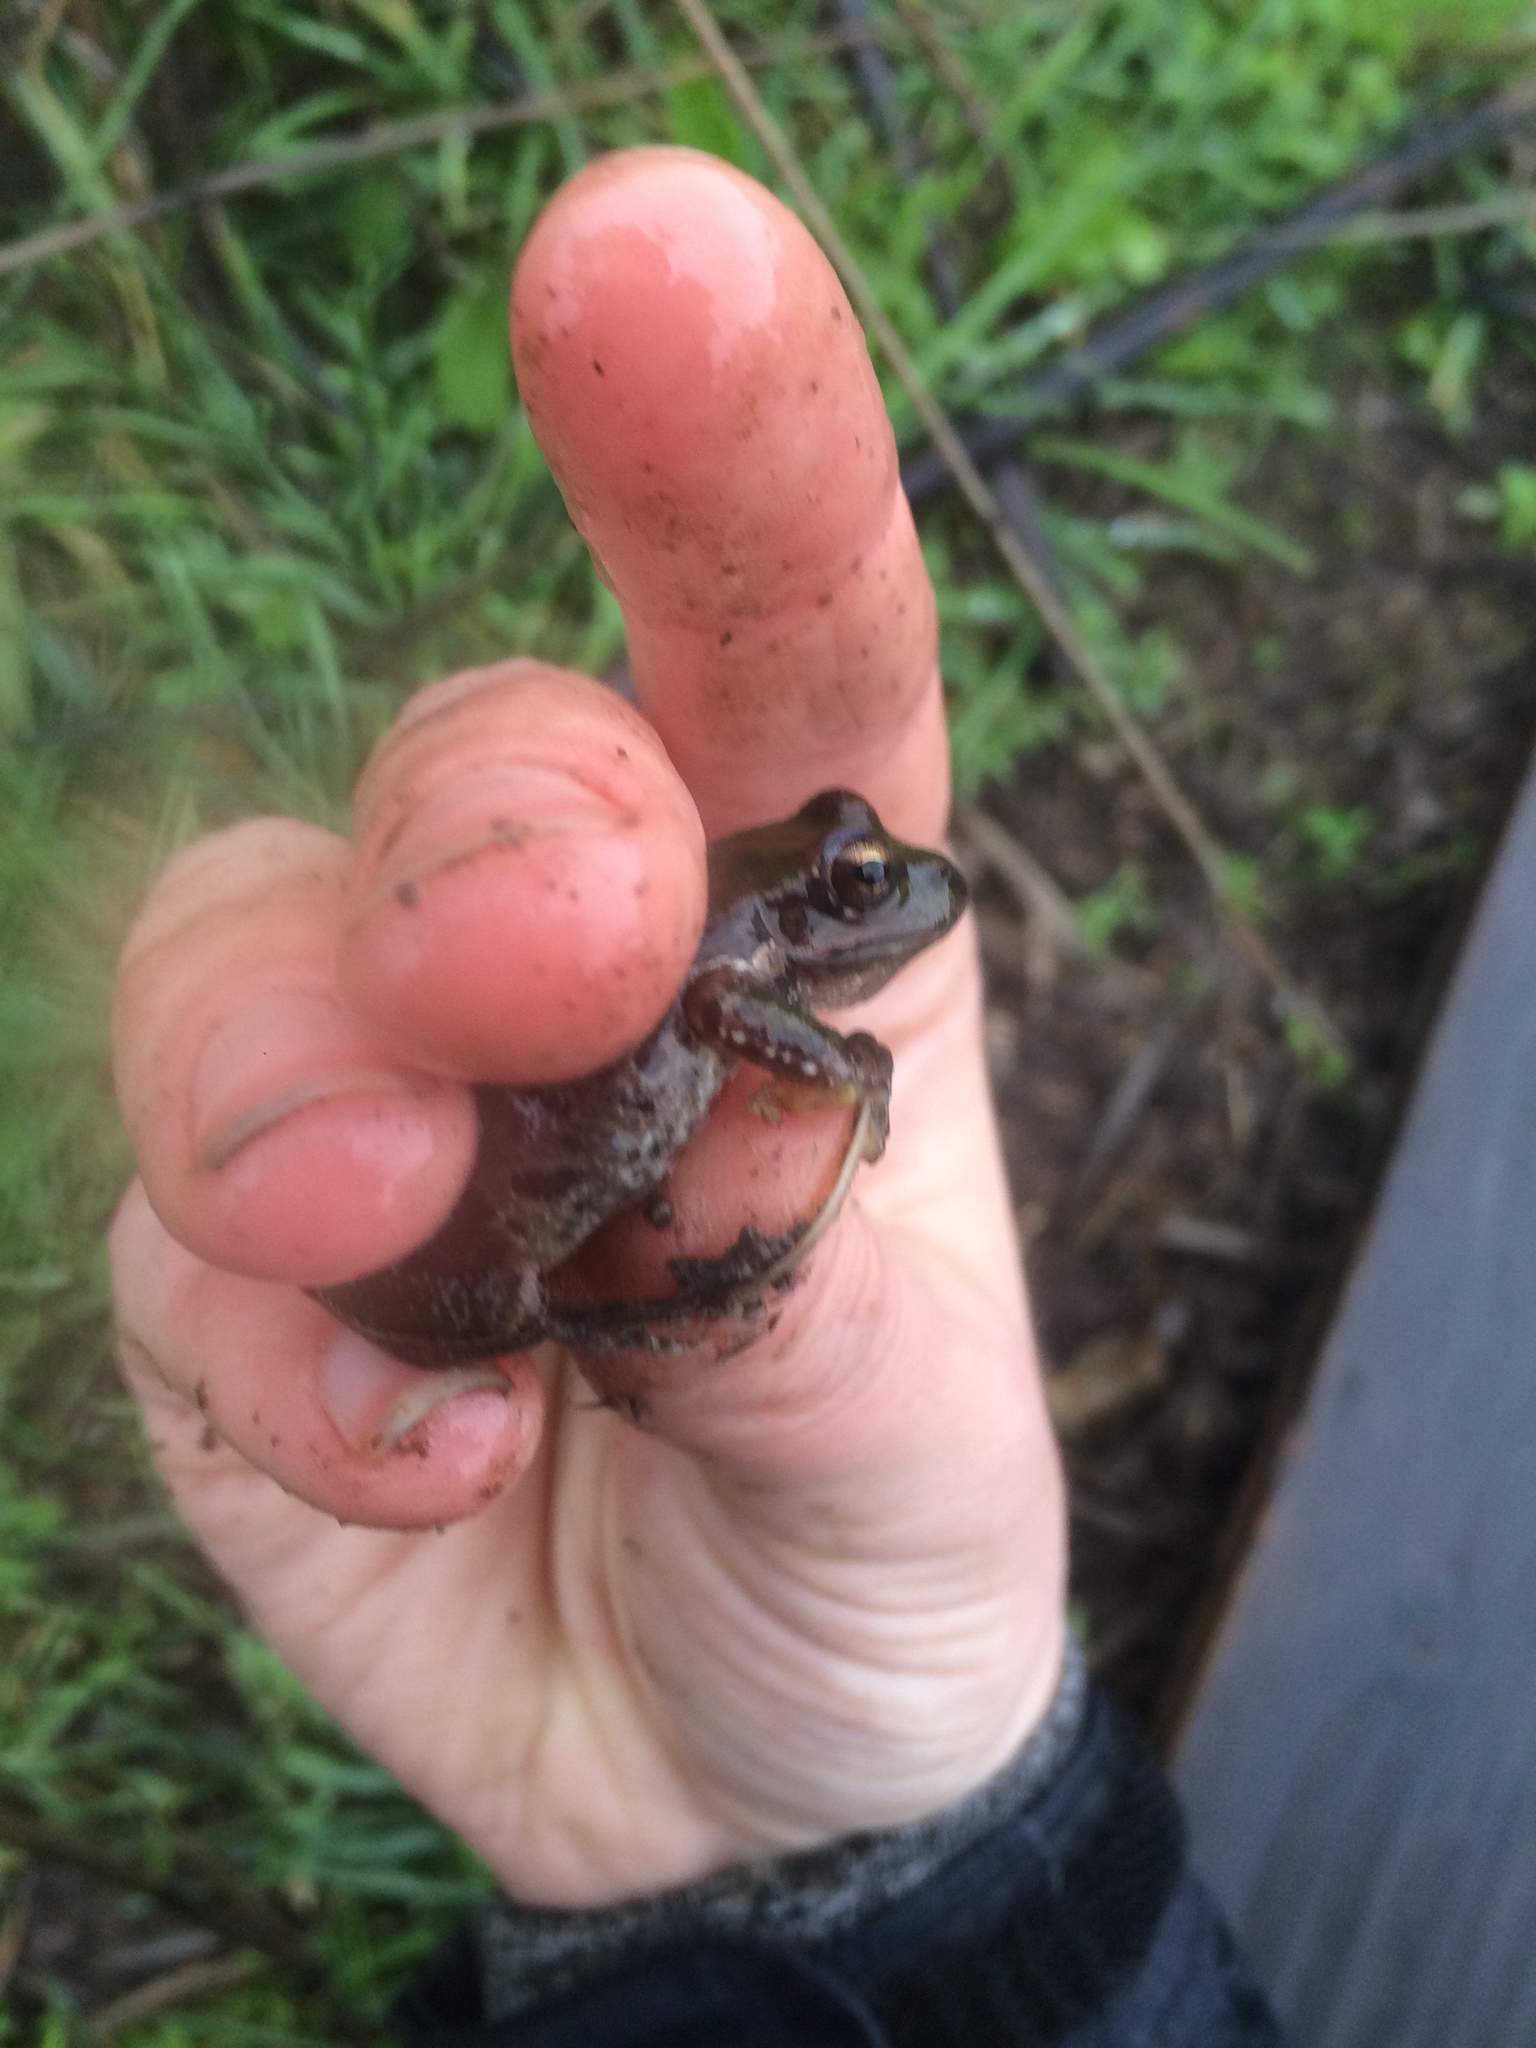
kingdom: Animalia
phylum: Chordata
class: Amphibia
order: Anura
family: Hylidae
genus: Pseudacris
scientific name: Pseudacris regilla
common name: Pacific chorus frog
